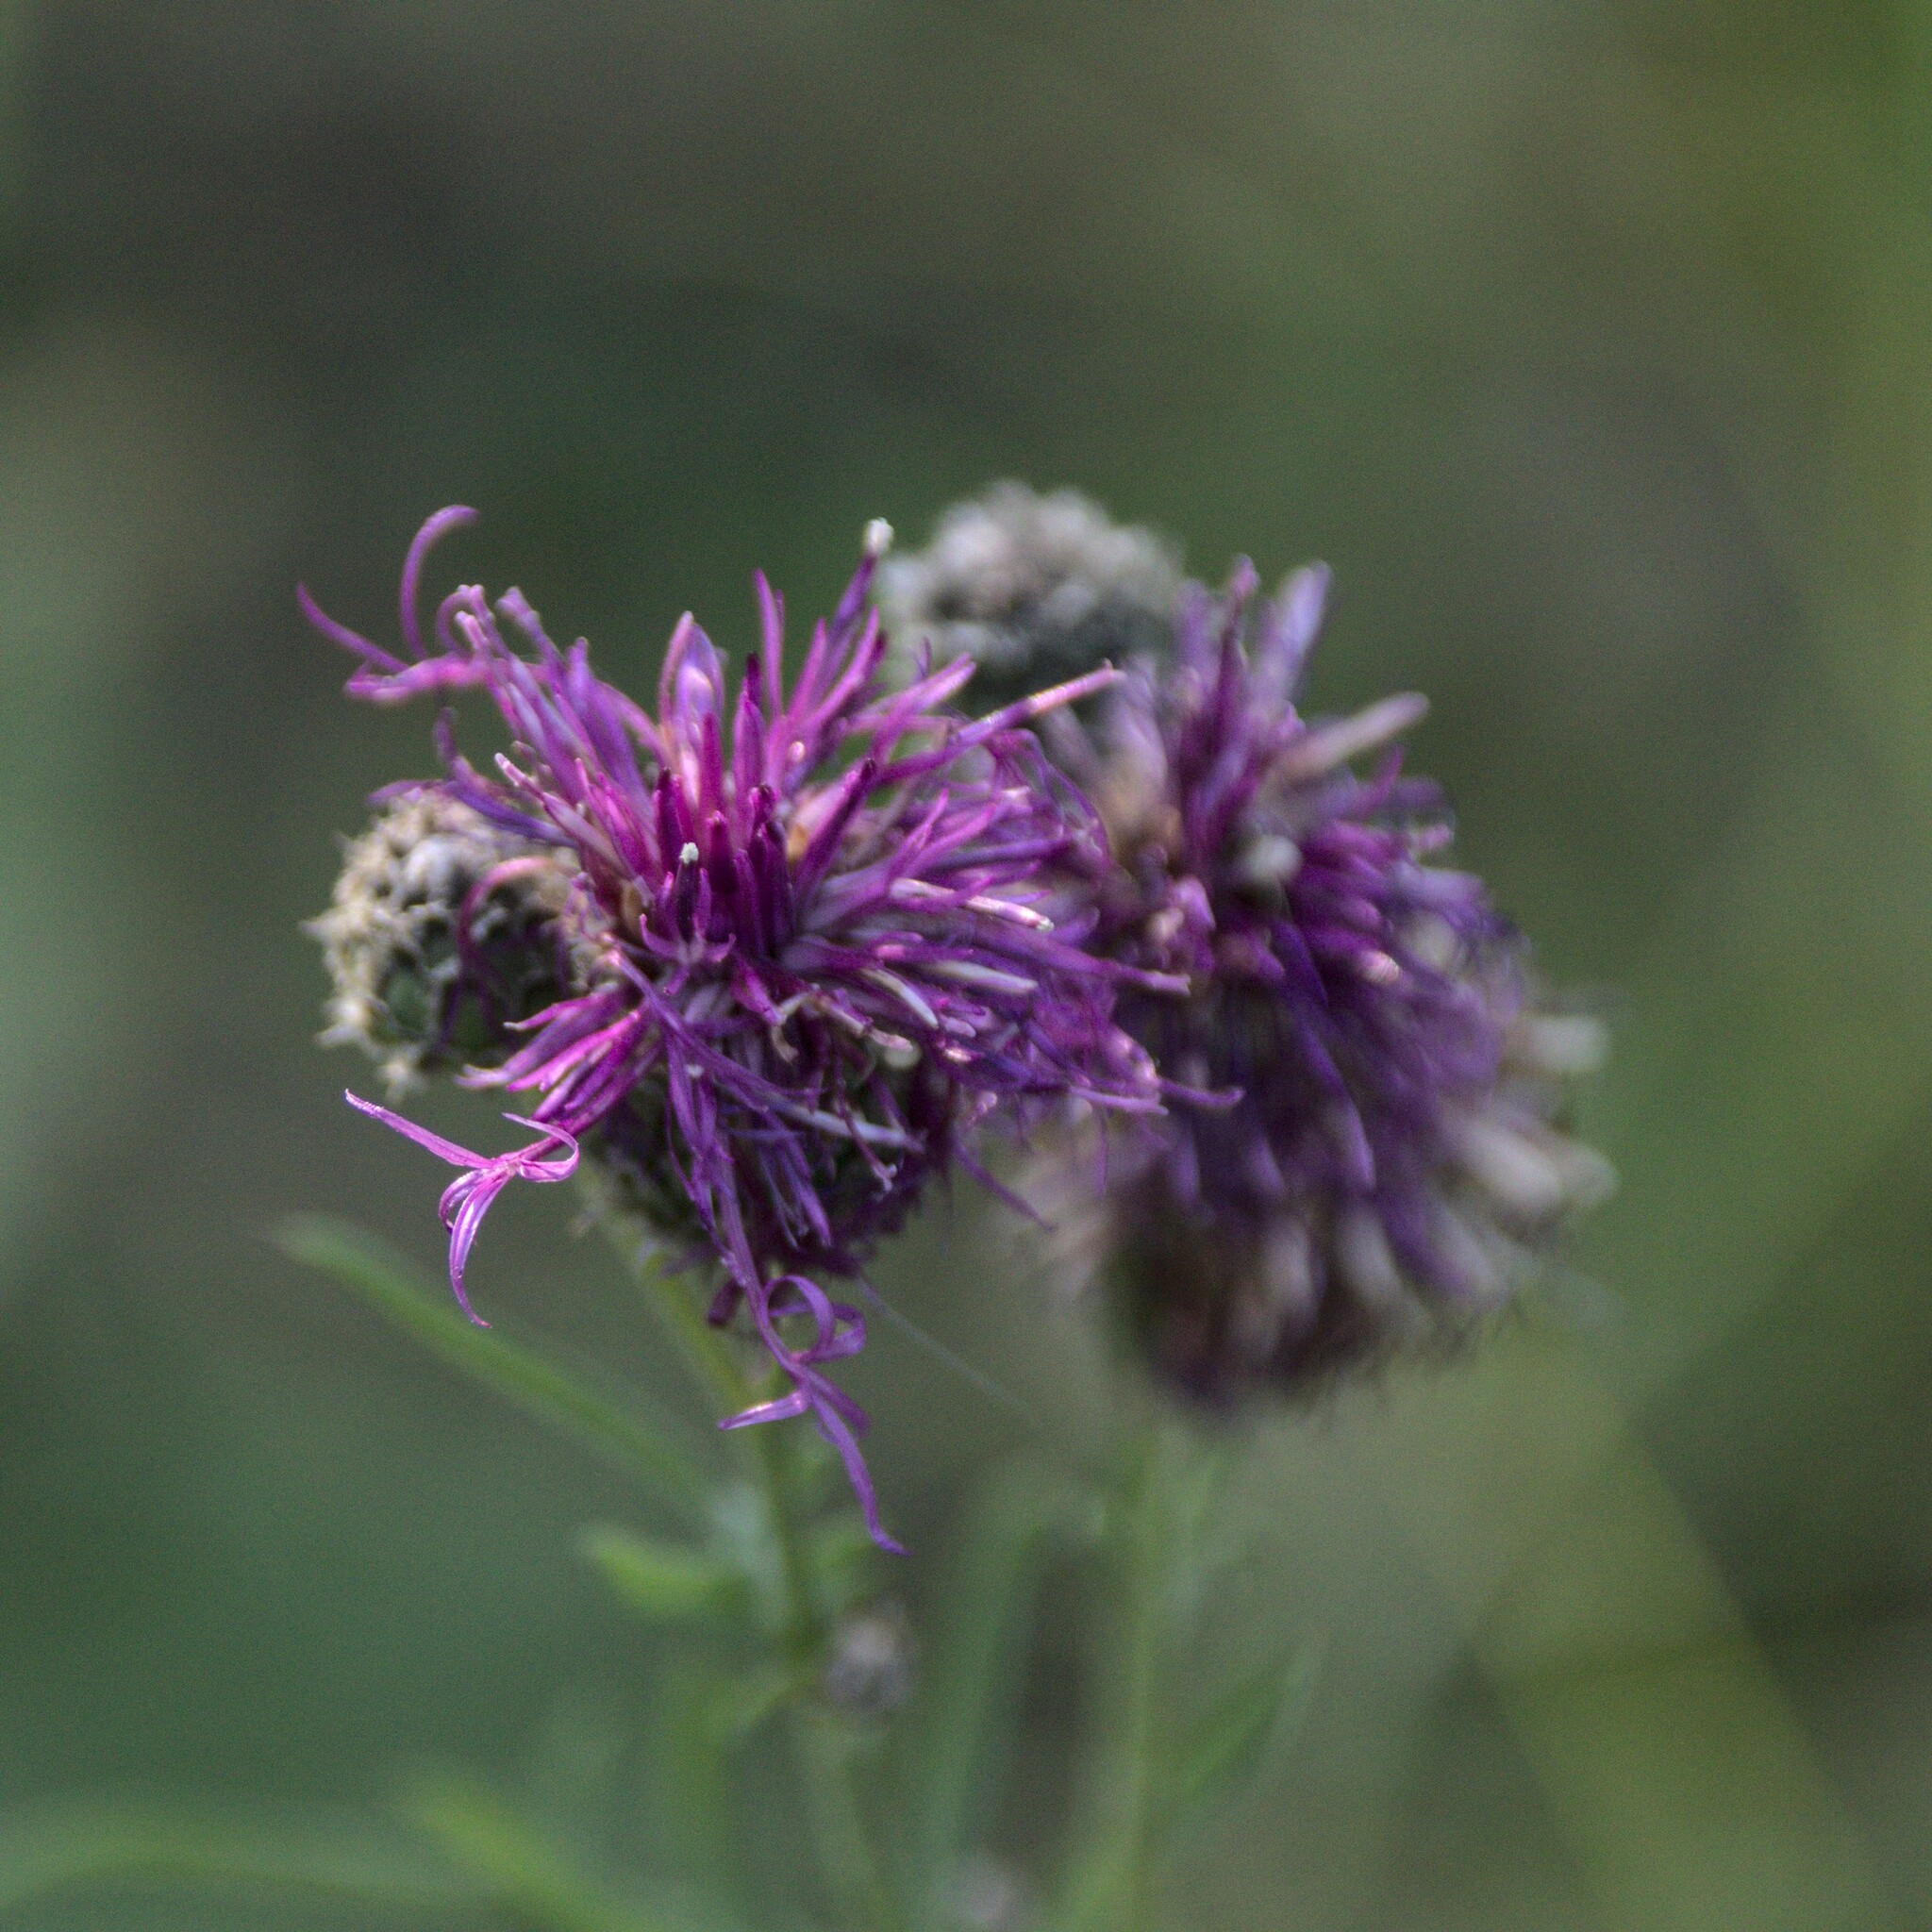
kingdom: Plantae
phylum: Tracheophyta
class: Magnoliopsida
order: Asterales
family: Asteraceae
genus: Centaurea
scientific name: Centaurea scabiosa
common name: Greater knapweed
